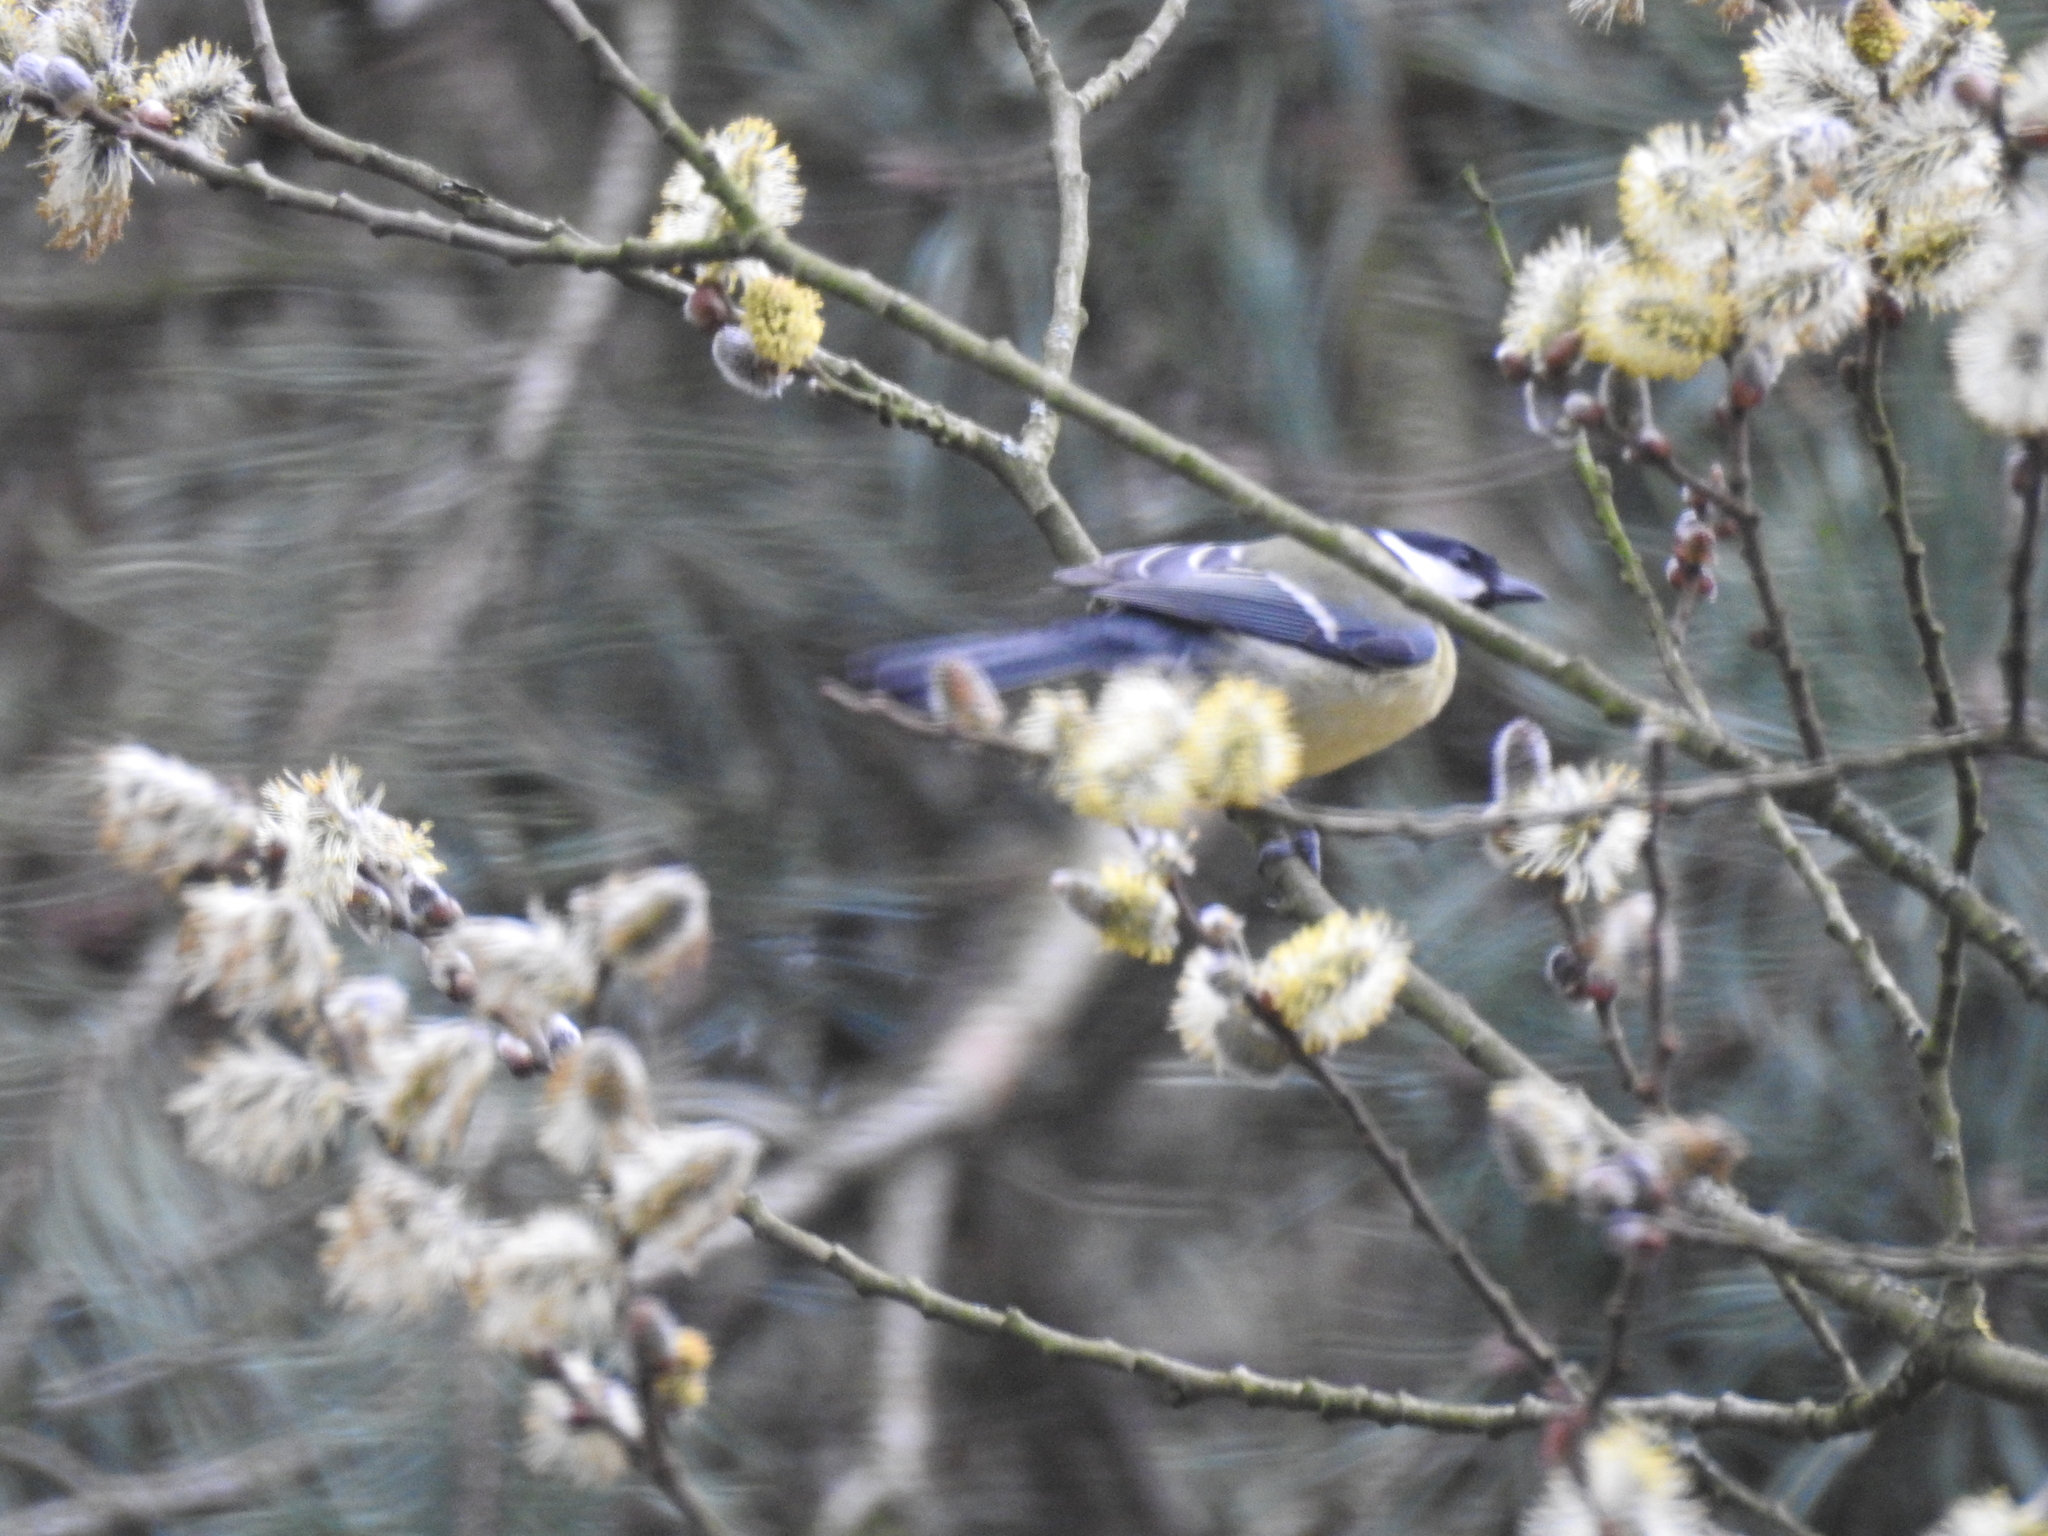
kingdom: Animalia
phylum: Chordata
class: Aves
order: Passeriformes
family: Paridae
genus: Parus
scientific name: Parus major
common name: Great tit
